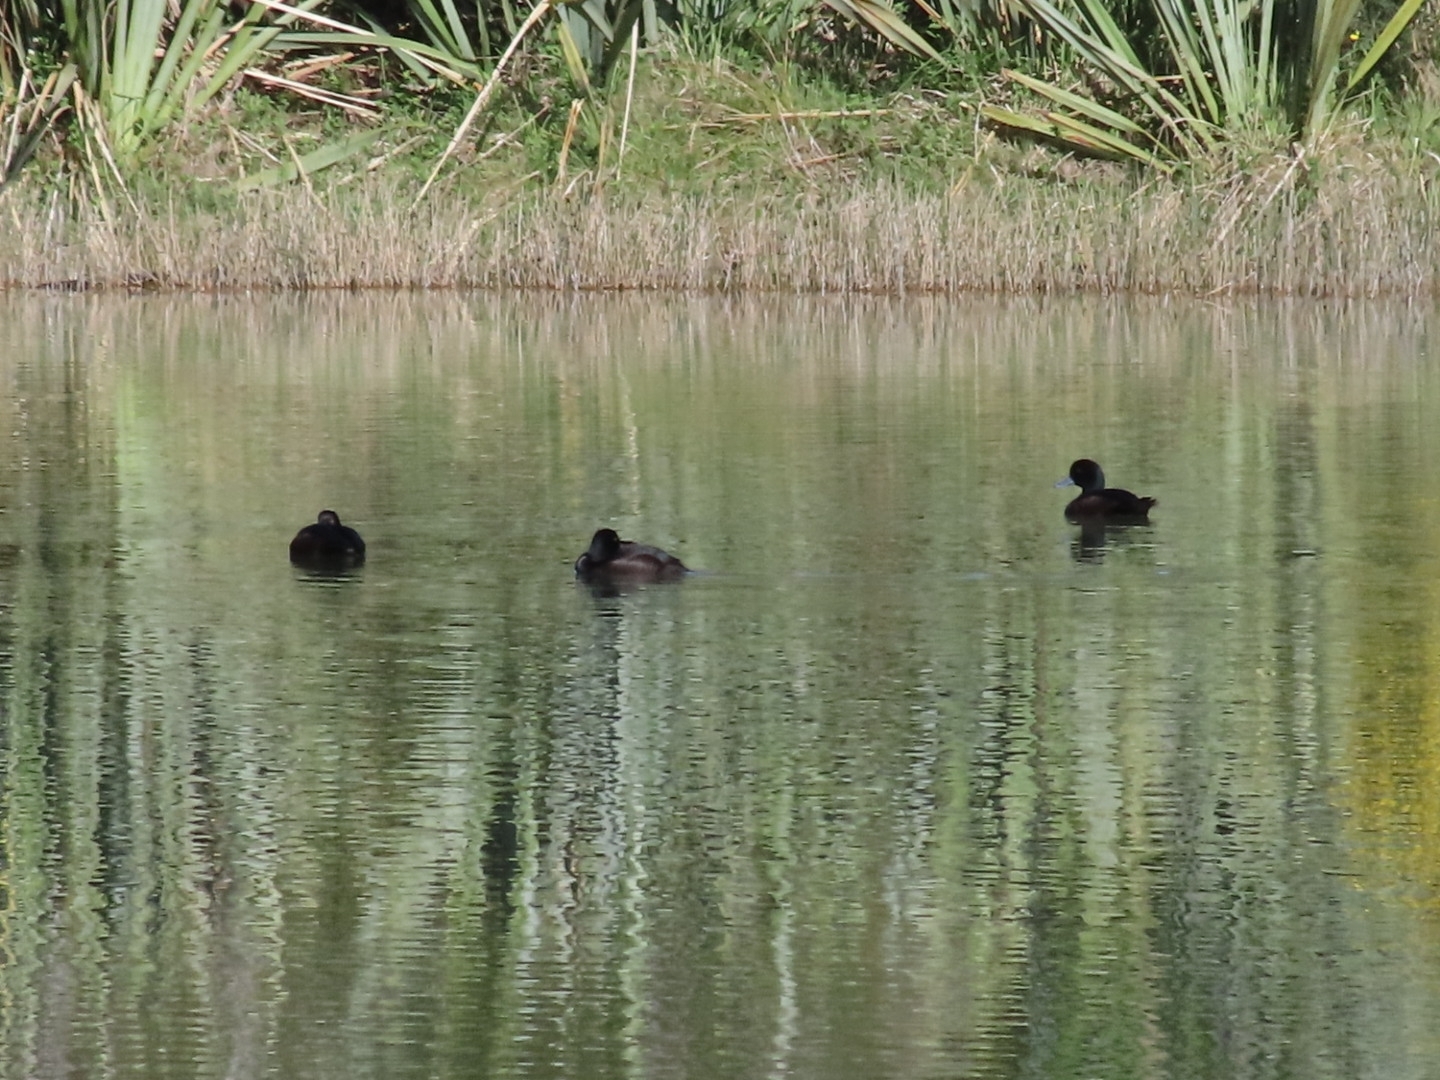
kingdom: Animalia
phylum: Chordata
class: Aves
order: Anseriformes
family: Anatidae
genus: Aythya
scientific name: Aythya novaeseelandiae
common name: New zealand scaup
